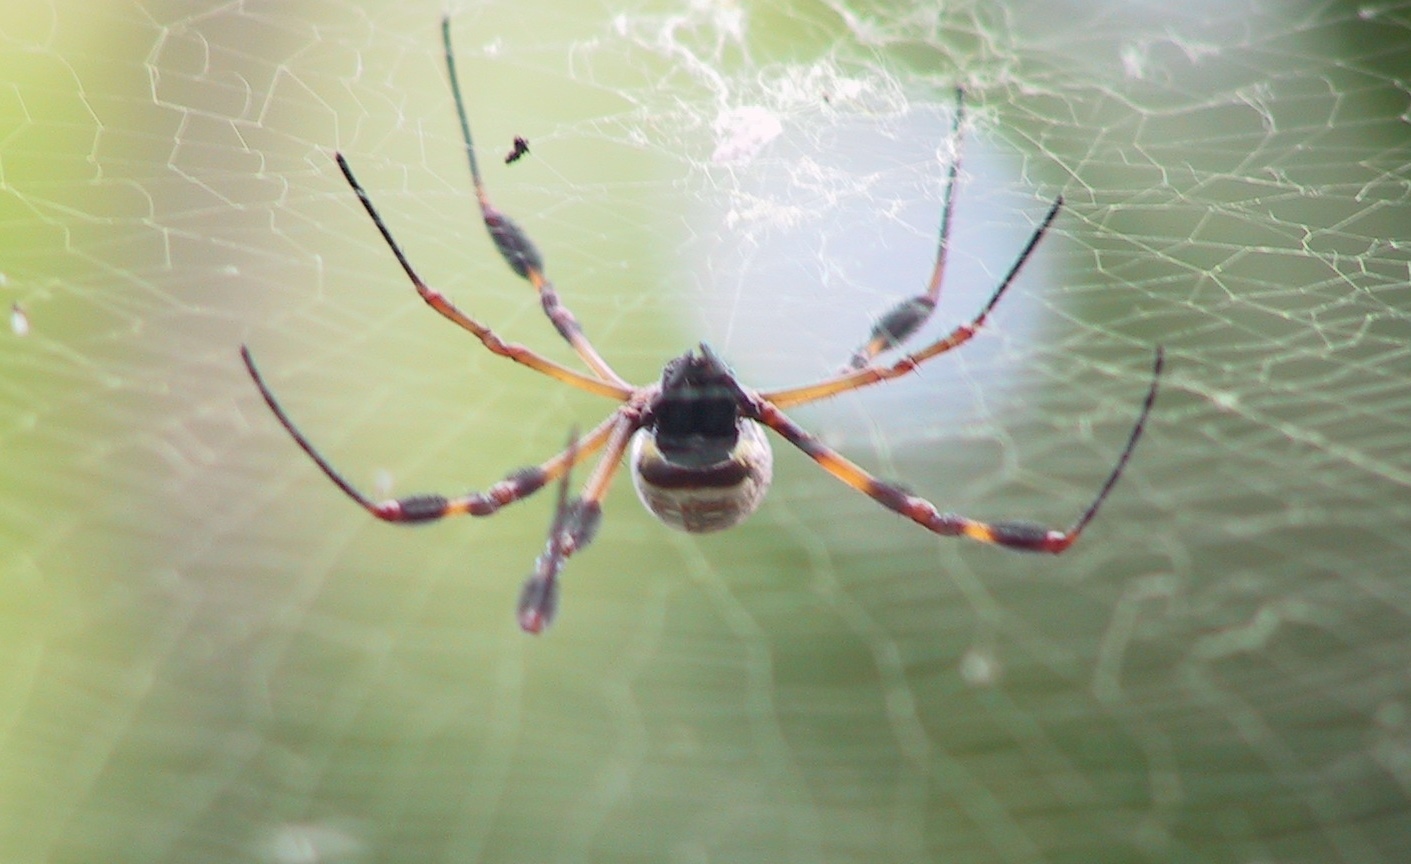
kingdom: Animalia
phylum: Arthropoda
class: Arachnida
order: Araneae
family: Araneidae
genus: Trichonephila
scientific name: Trichonephila clavipes
